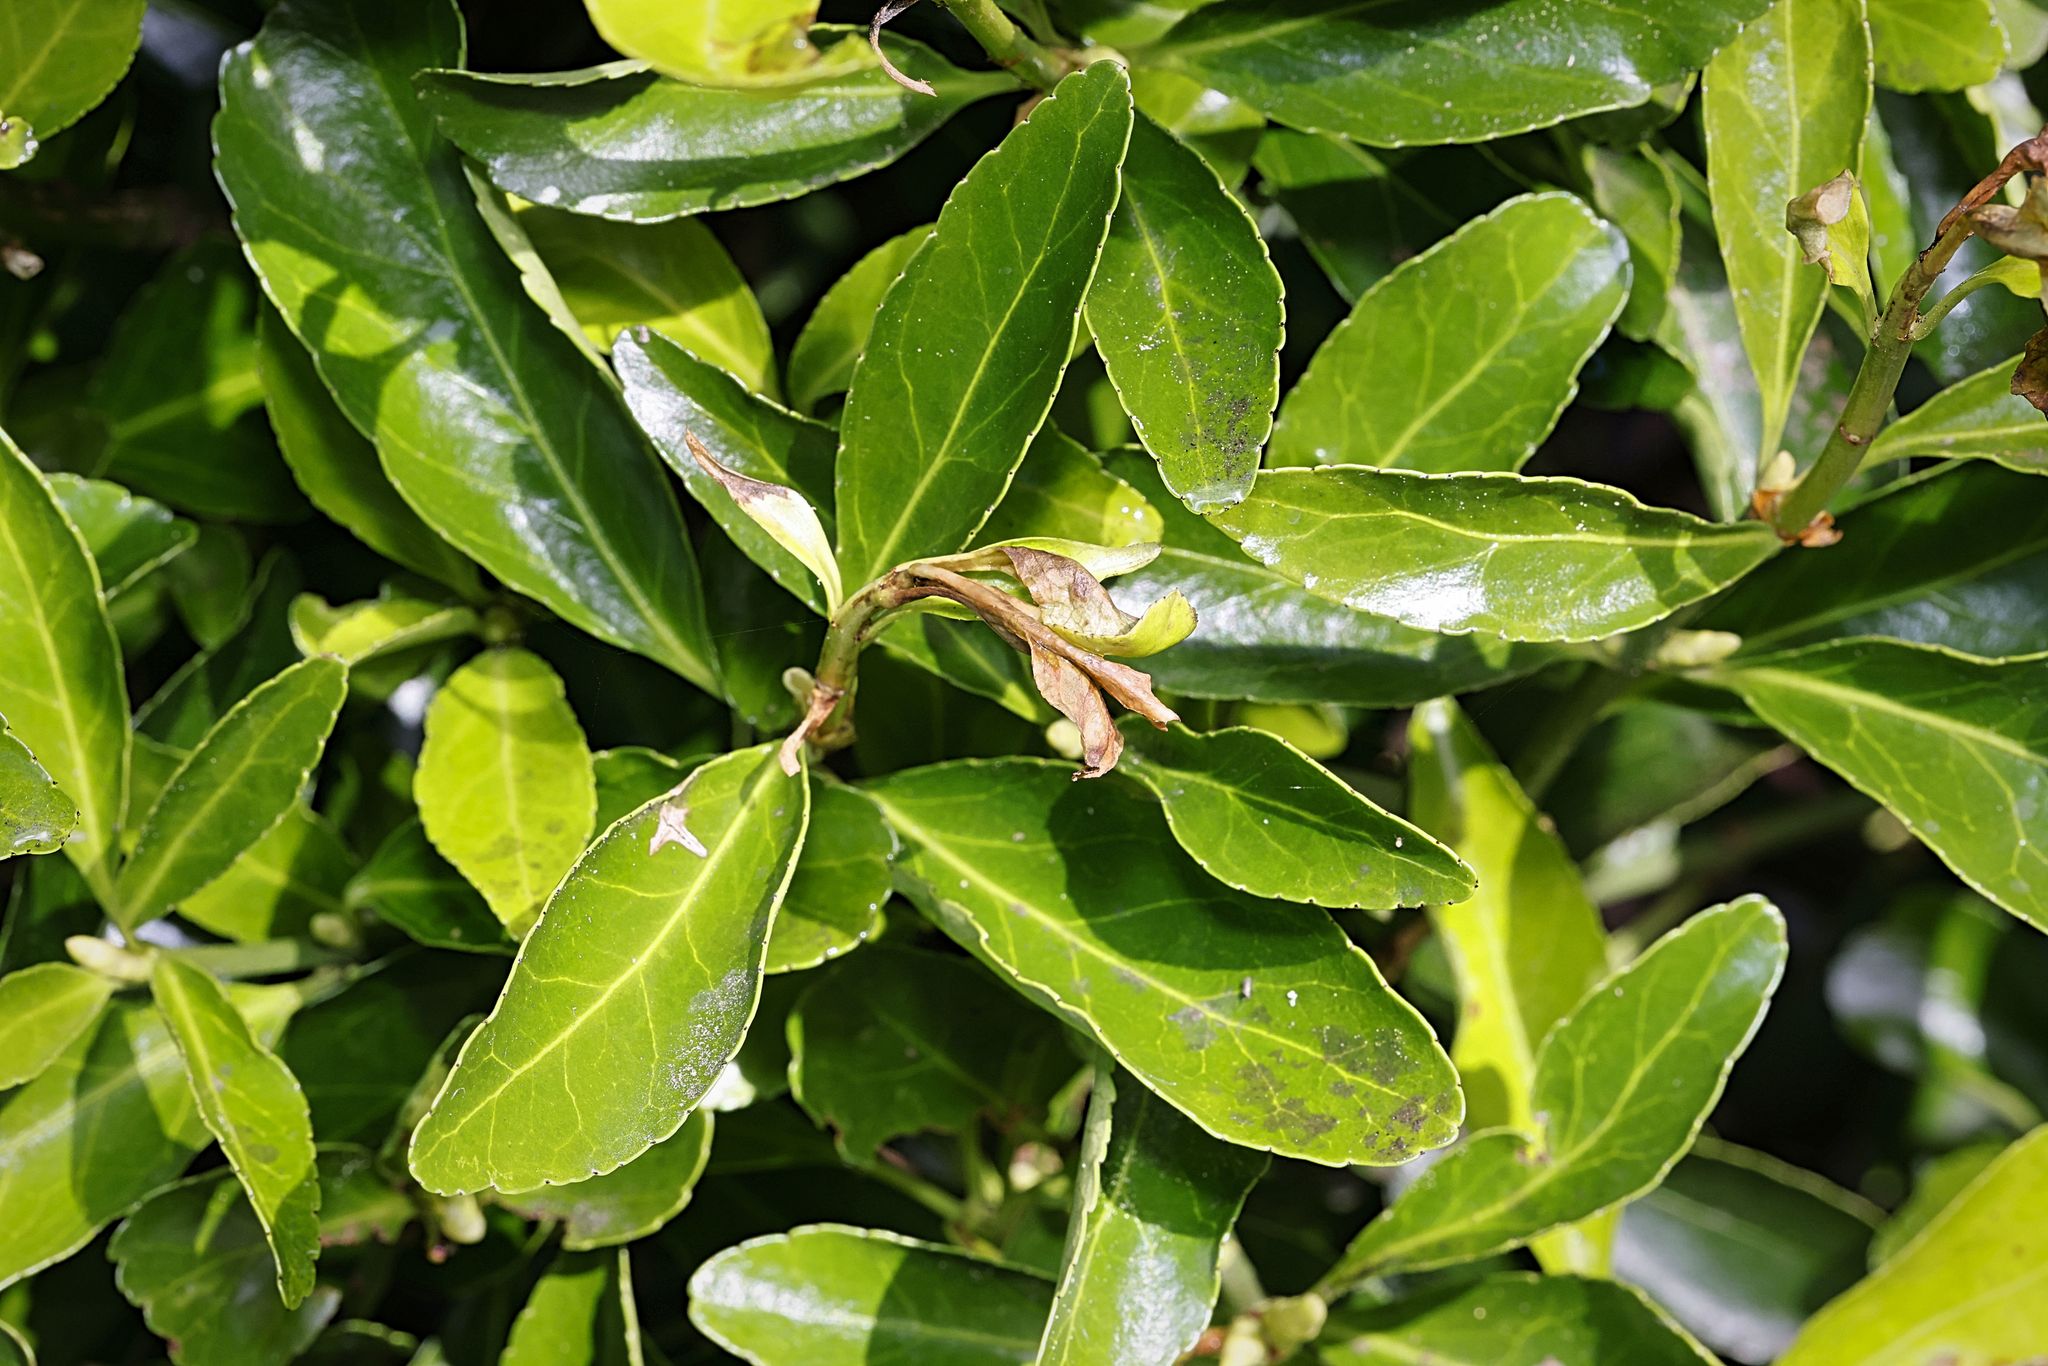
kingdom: Plantae
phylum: Tracheophyta
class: Magnoliopsida
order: Celastrales
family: Celastraceae
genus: Euonymus
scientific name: Euonymus japonicus
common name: Japanese spindletree
